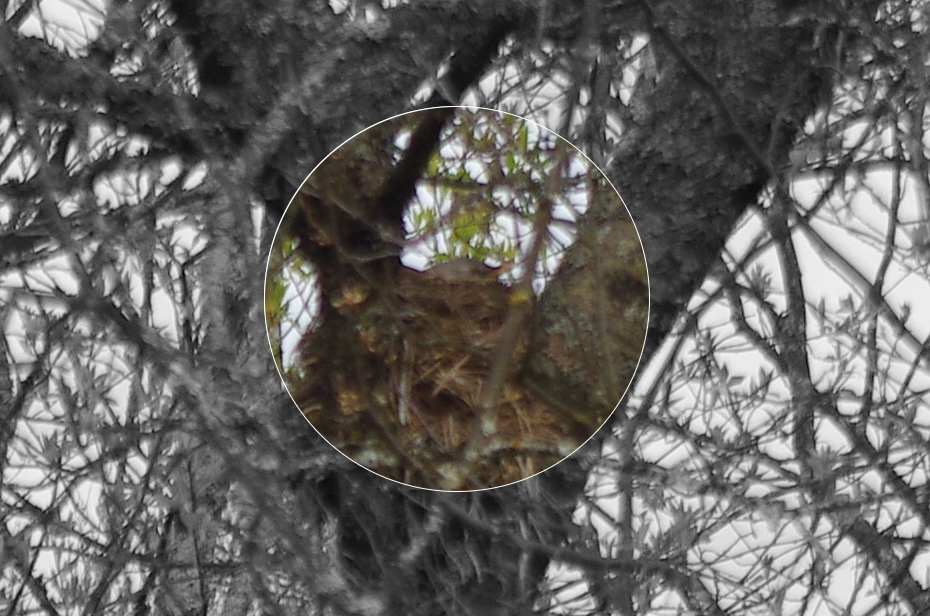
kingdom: Animalia
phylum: Chordata
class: Aves
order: Passeriformes
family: Turdidae
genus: Turdus
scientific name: Turdus pilaris
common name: Fieldfare
